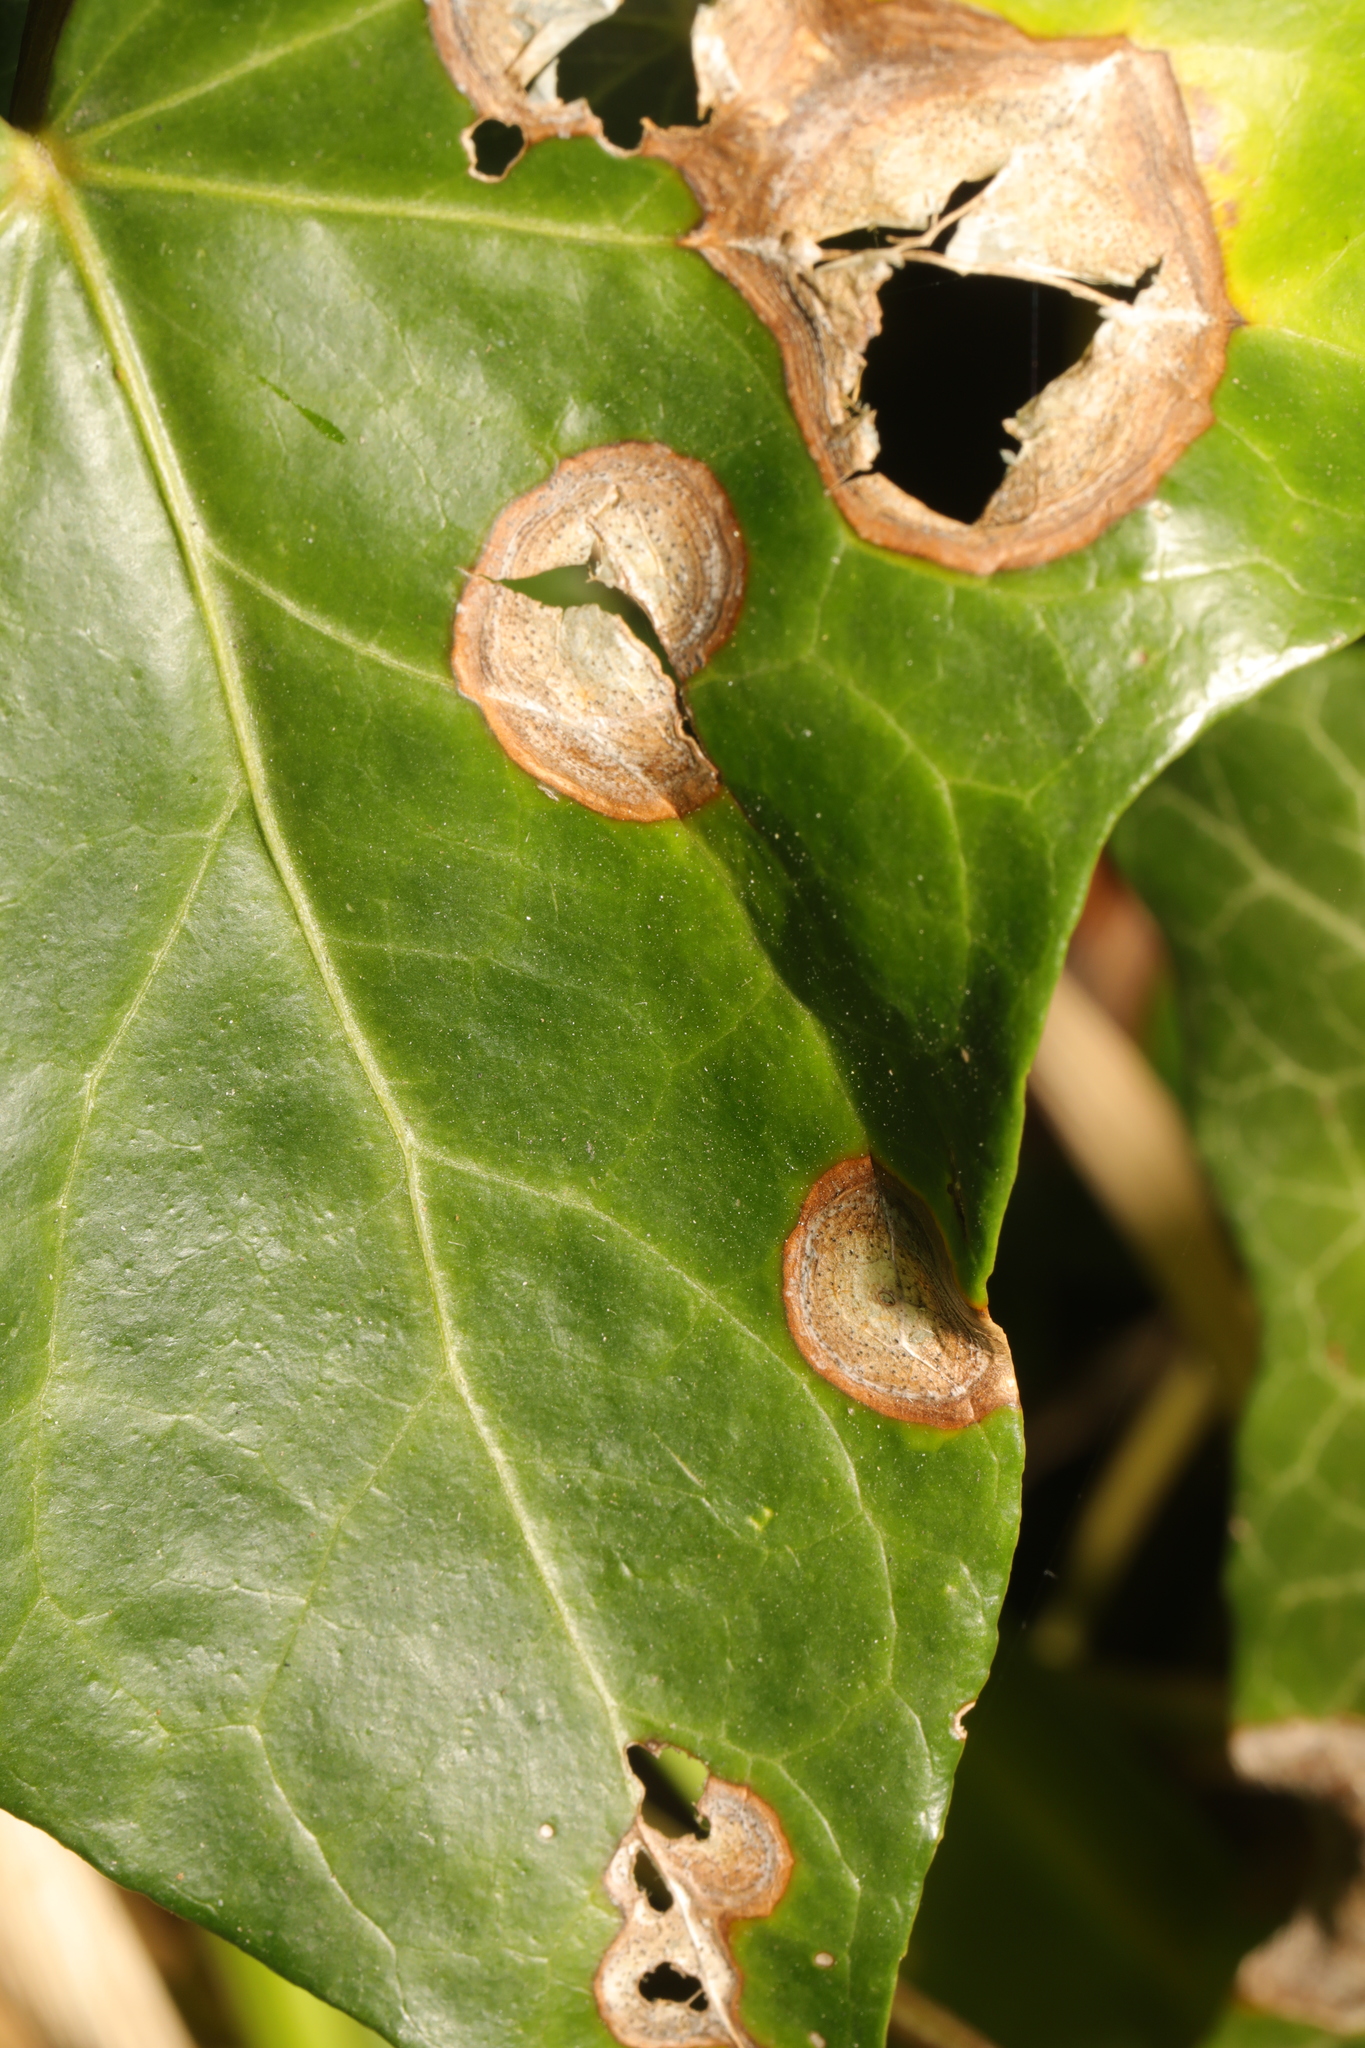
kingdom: Fungi
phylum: Ascomycota
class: Dothideomycetes
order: Pleosporales
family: Didymellaceae
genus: Boeremia
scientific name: Boeremia hedericola
